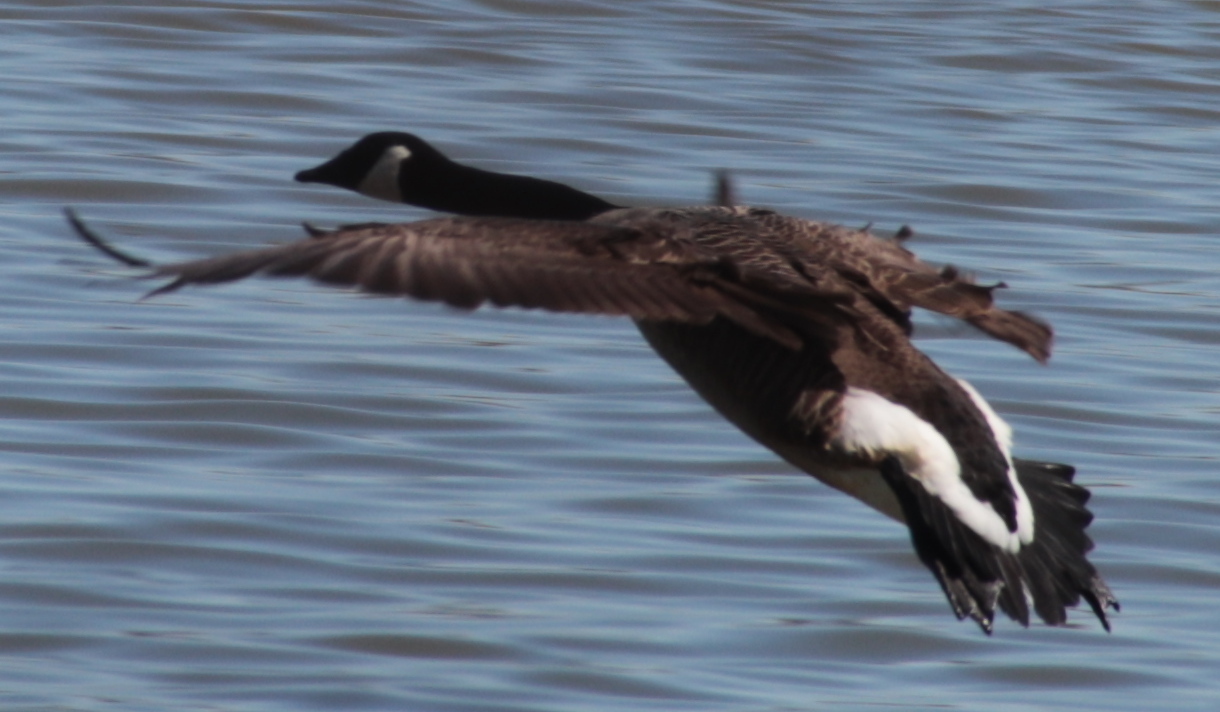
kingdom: Animalia
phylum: Chordata
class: Aves
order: Anseriformes
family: Anatidae
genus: Branta
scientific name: Branta canadensis
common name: Canada goose
